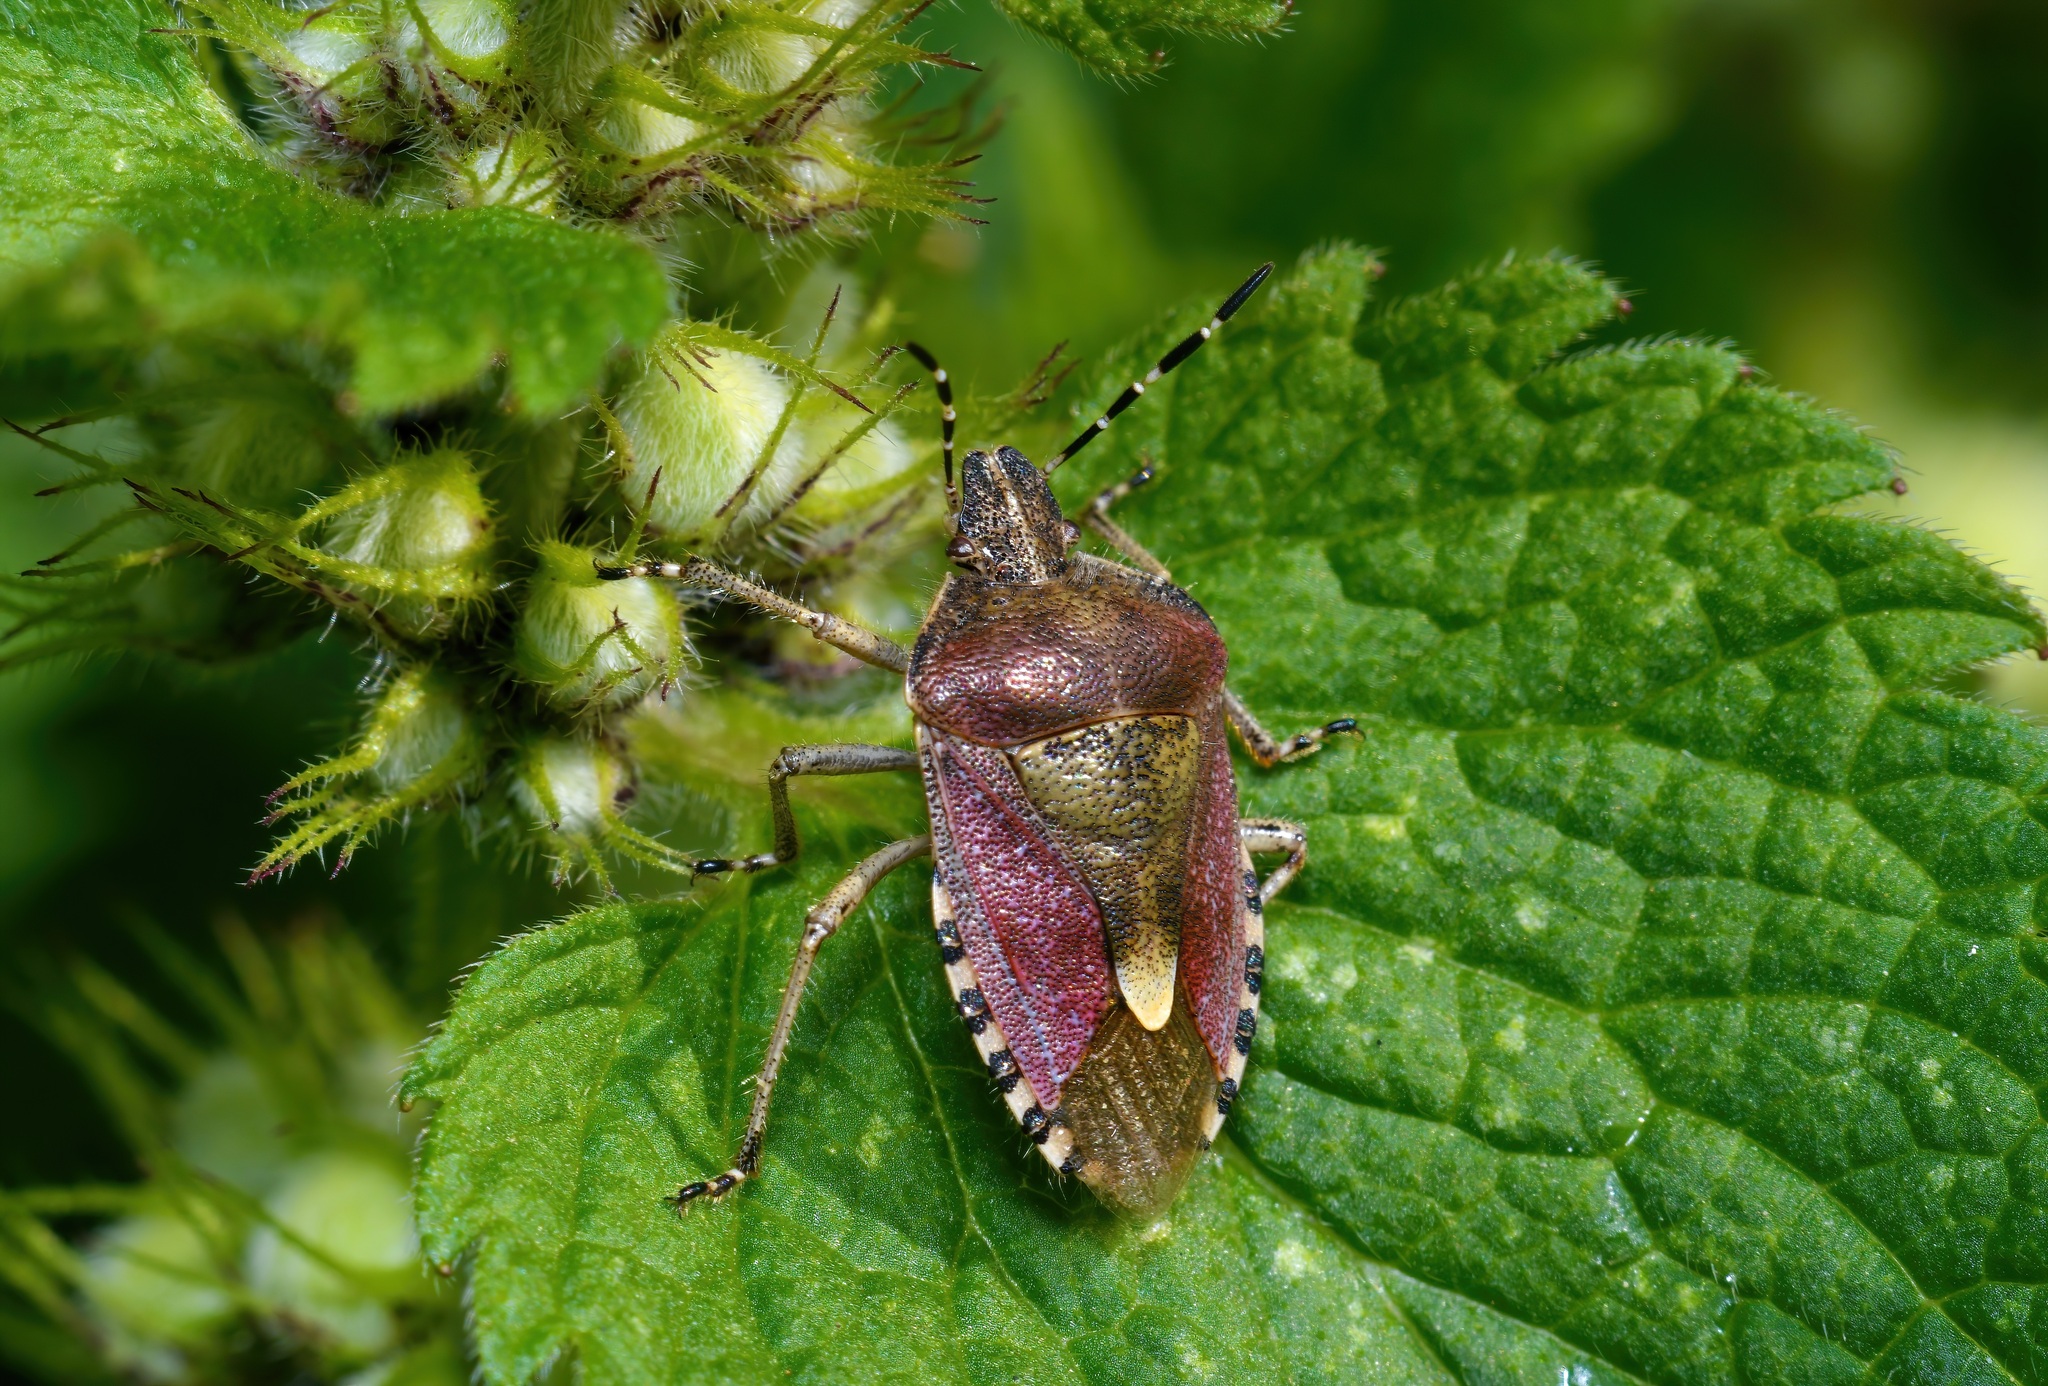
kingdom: Animalia
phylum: Arthropoda
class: Insecta
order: Hemiptera
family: Pentatomidae
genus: Dolycoris
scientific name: Dolycoris baccarum
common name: Sloe bug
